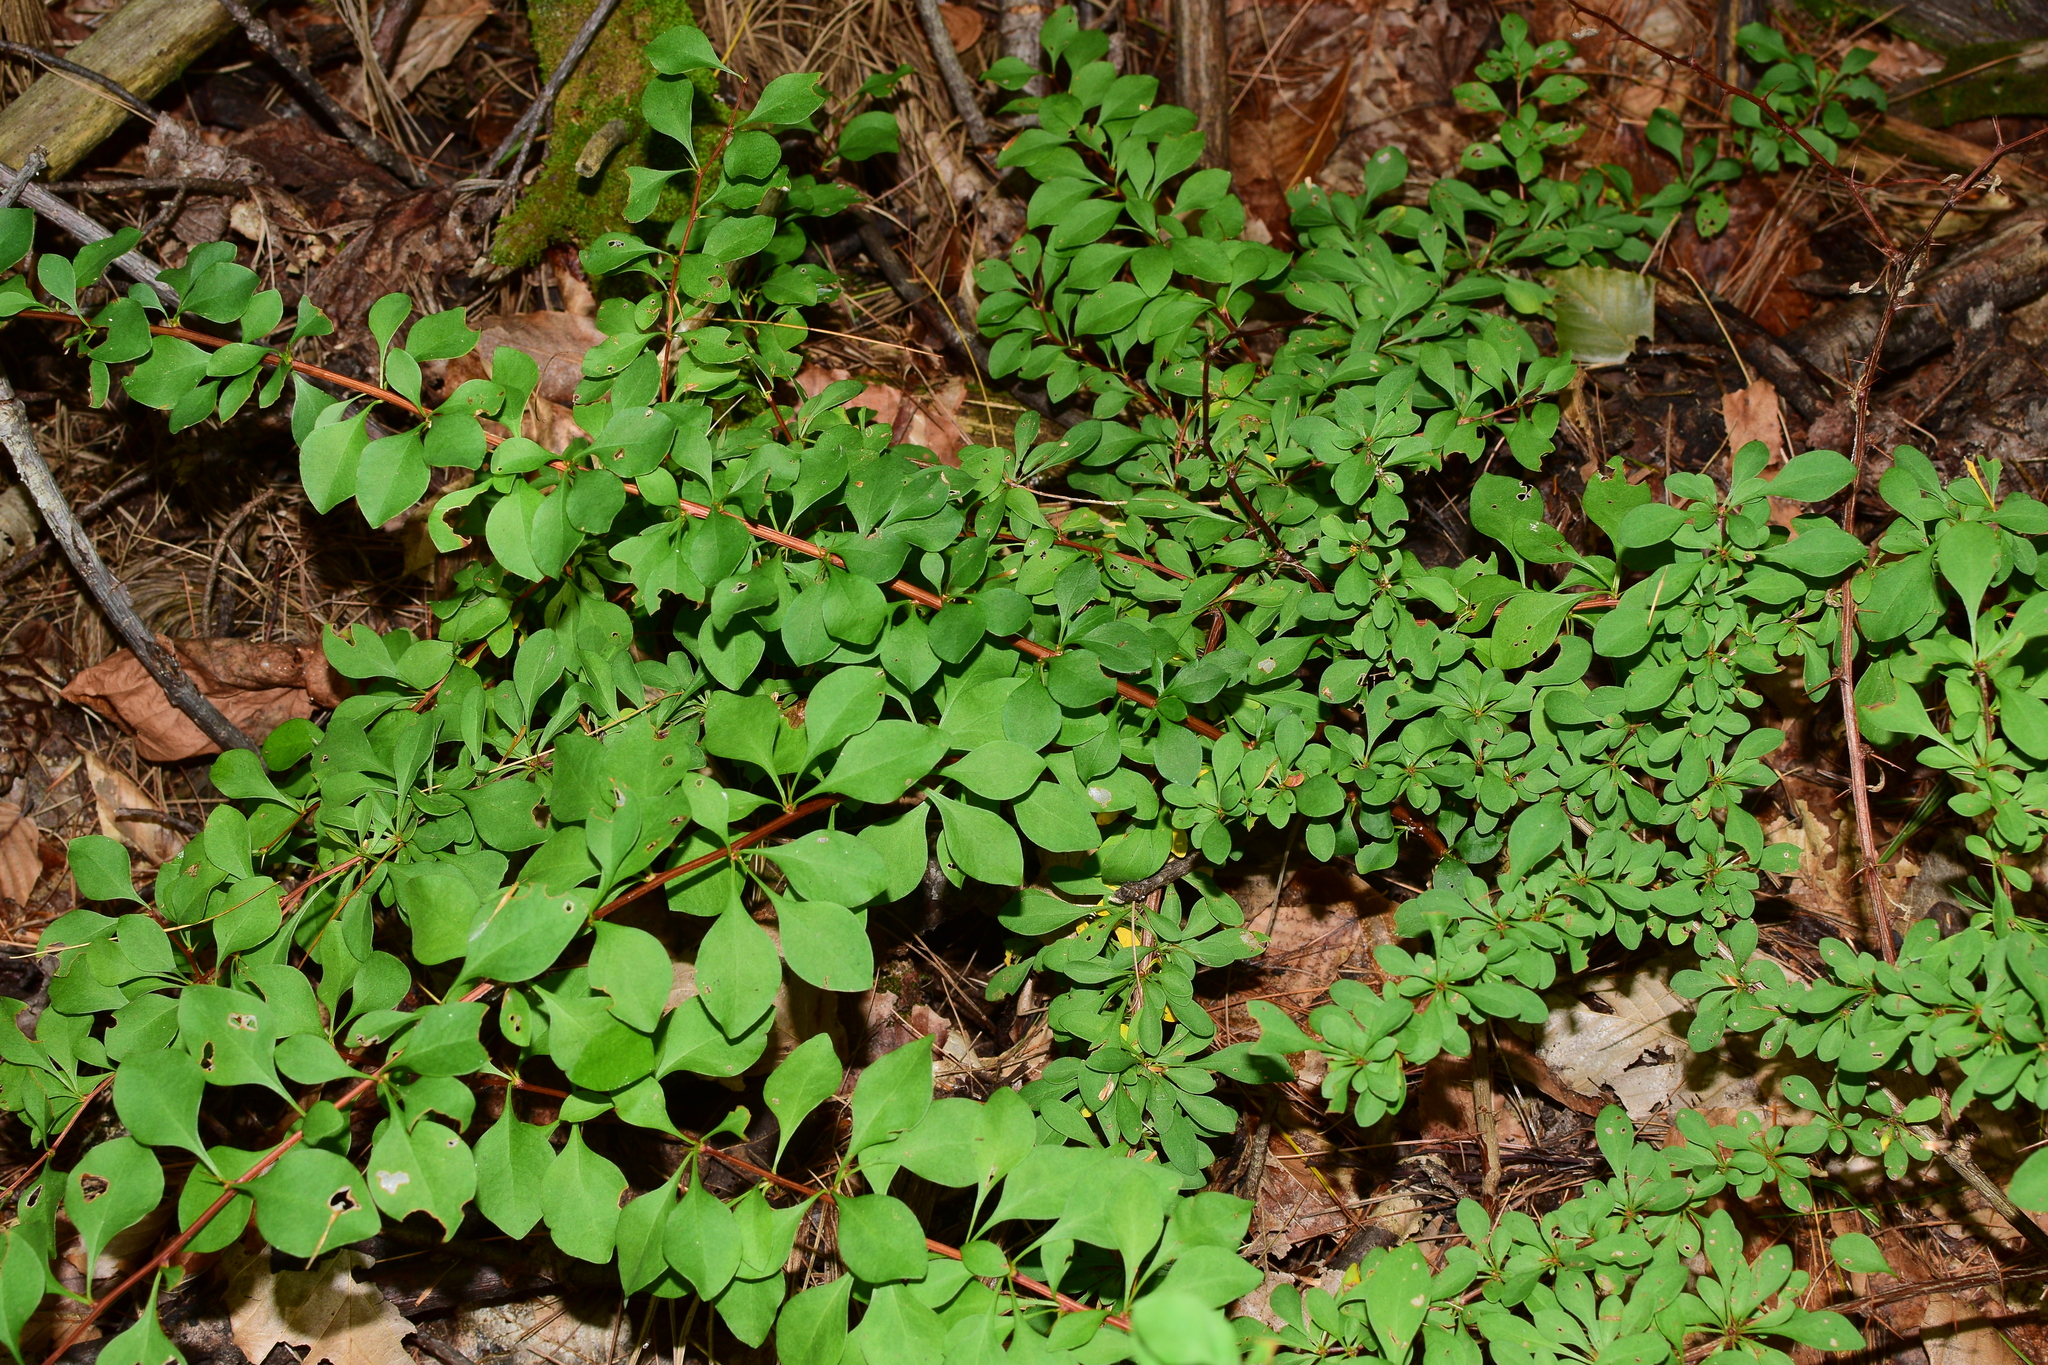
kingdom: Plantae
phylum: Tracheophyta
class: Magnoliopsida
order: Ranunculales
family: Berberidaceae
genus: Berberis
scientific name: Berberis thunbergii
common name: Japanese barberry
